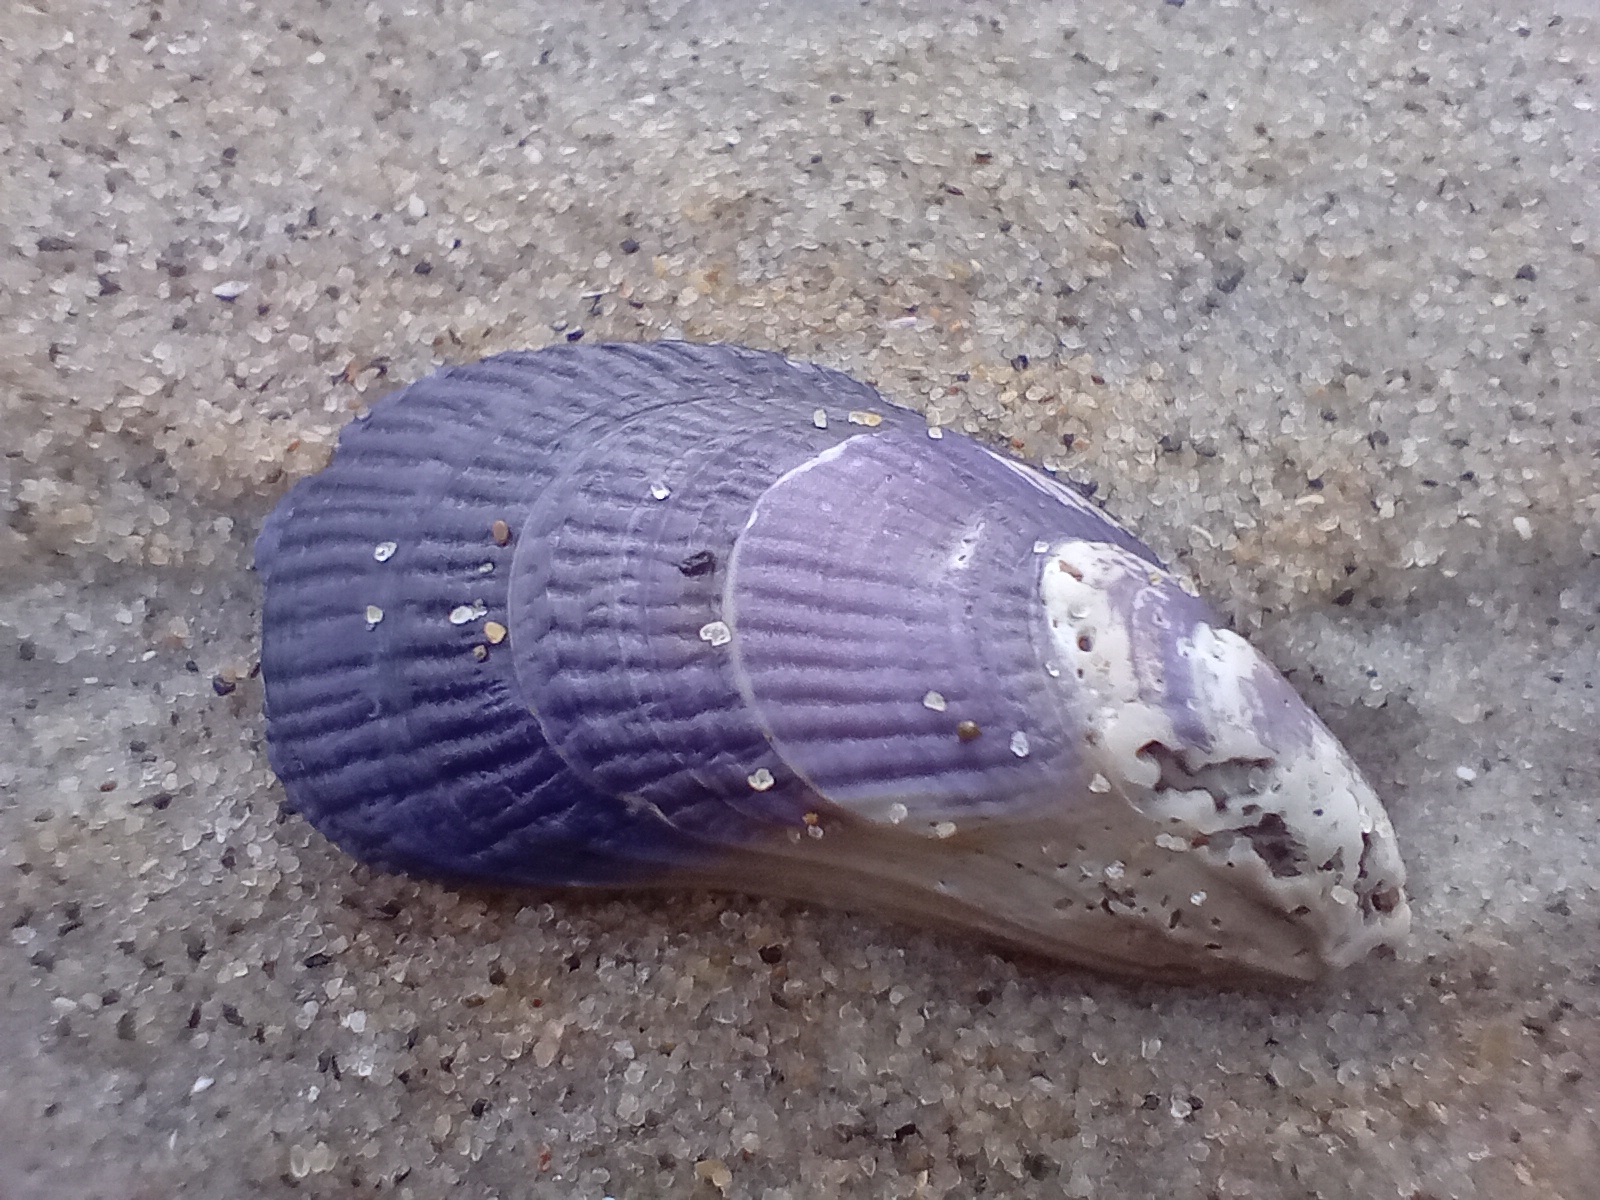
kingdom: Animalia
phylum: Mollusca
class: Bivalvia
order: Mytilida
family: Mytilidae
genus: Aulacomya
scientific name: Aulacomya maoriana
